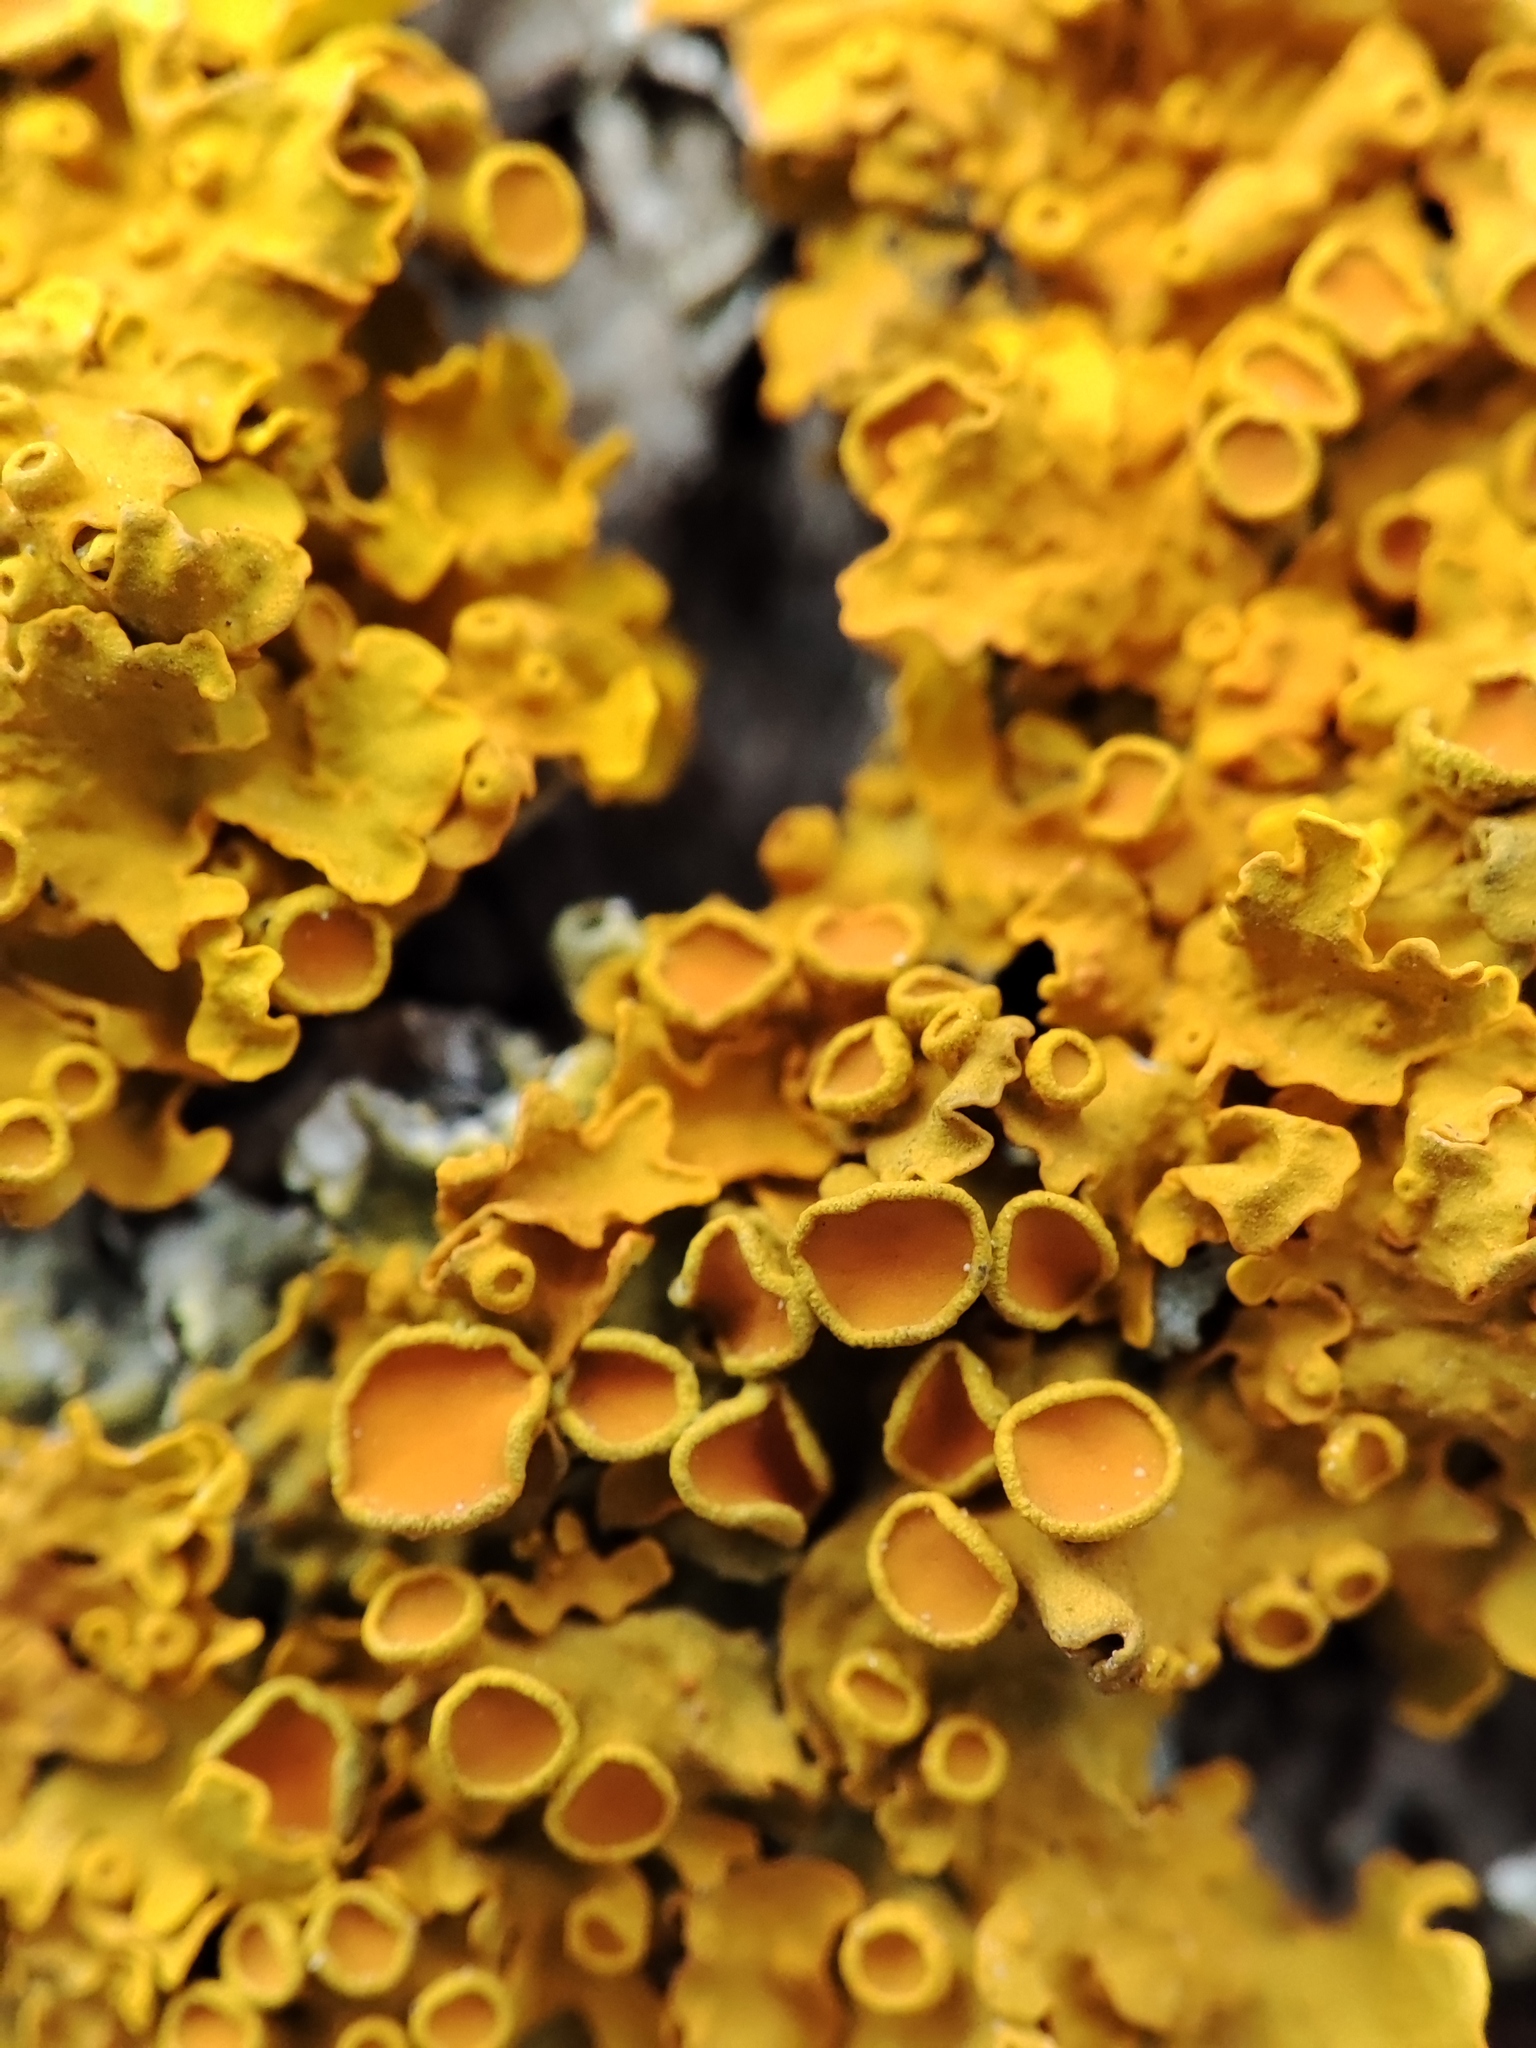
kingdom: Fungi
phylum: Ascomycota
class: Lecanoromycetes
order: Teloschistales
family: Teloschistaceae
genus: Xanthoria
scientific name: Xanthoria parietina
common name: Common orange lichen
